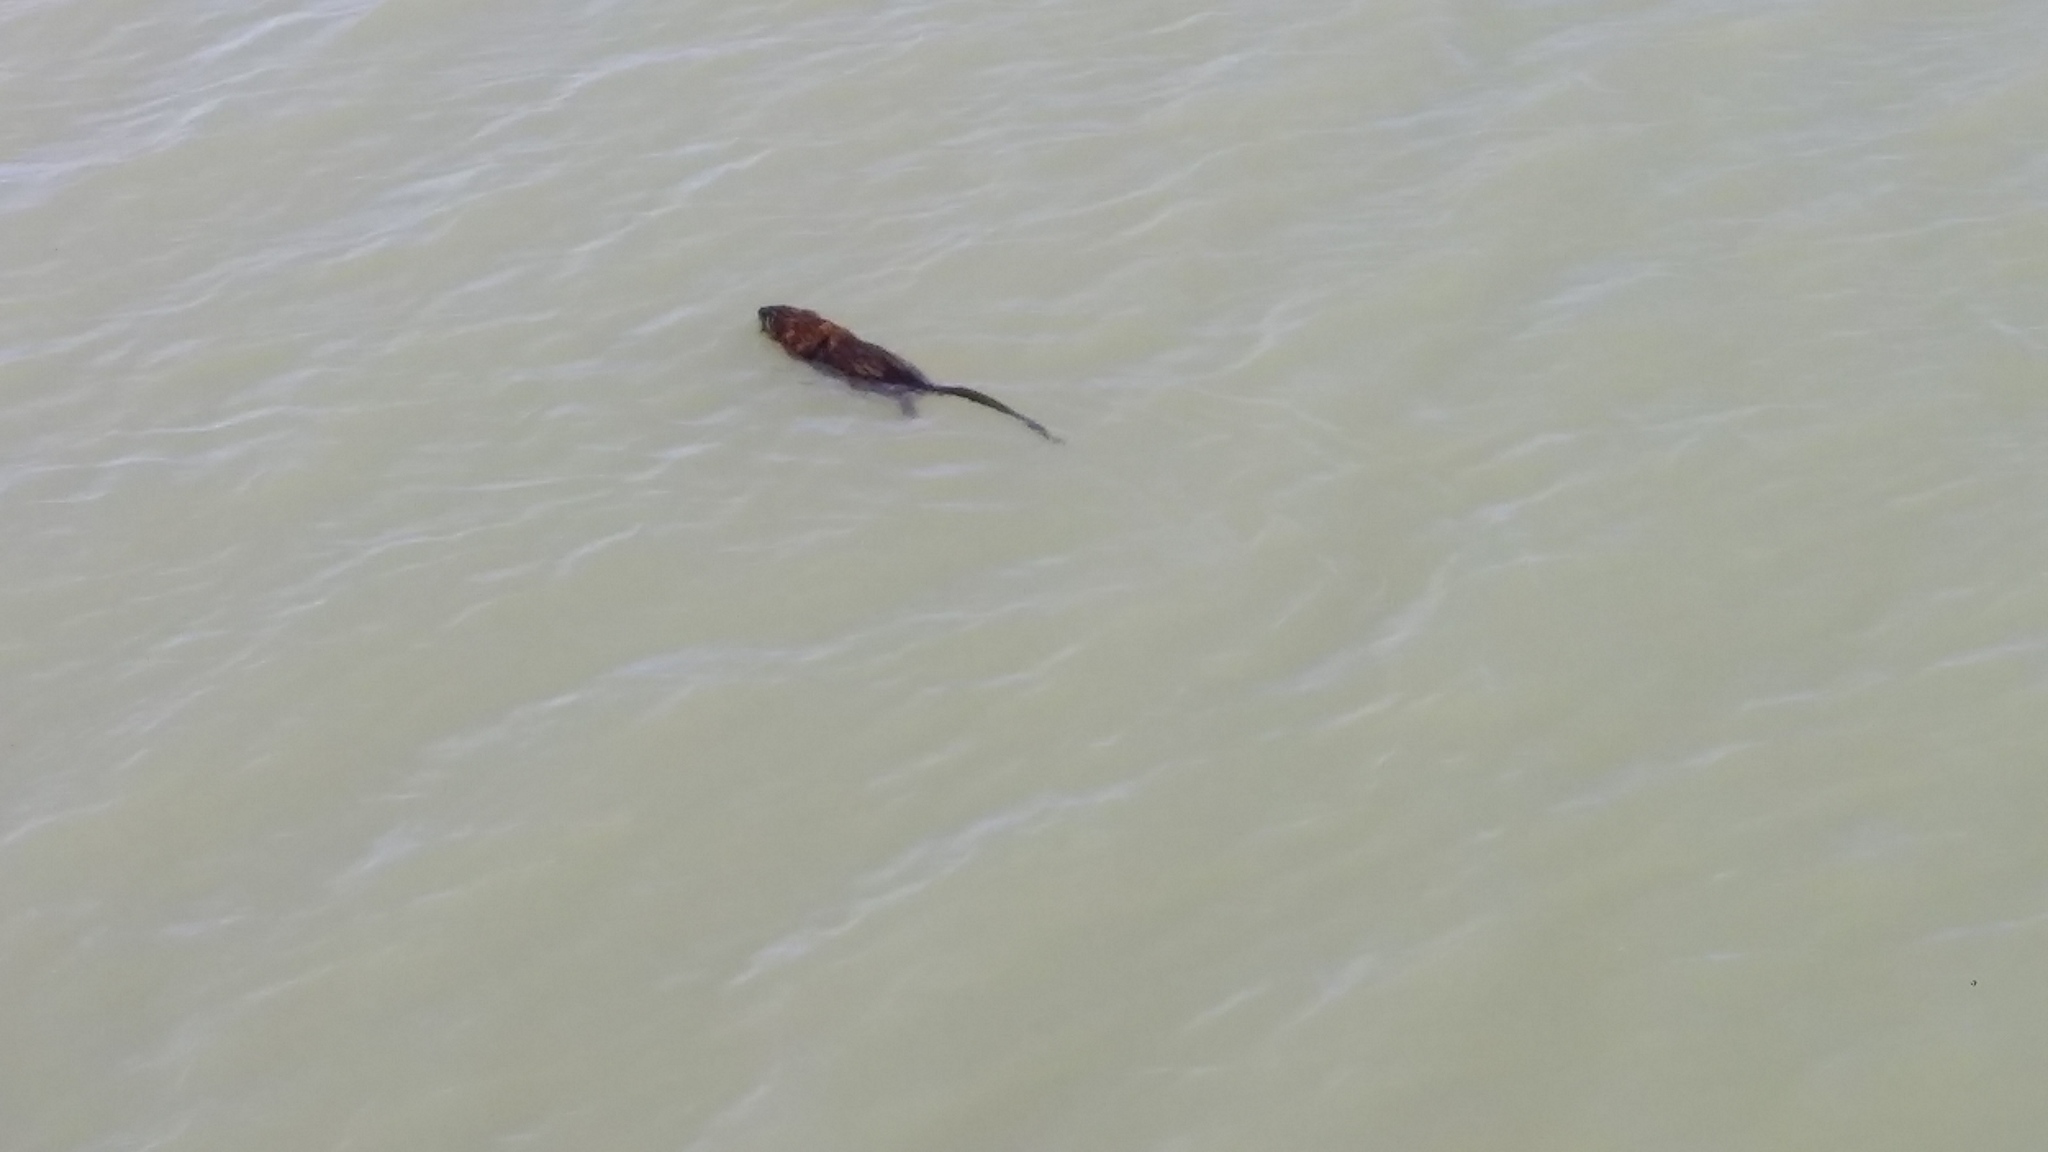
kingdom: Animalia
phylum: Chordata
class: Mammalia
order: Rodentia
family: Cricetidae
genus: Ondatra
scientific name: Ondatra zibethicus
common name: Muskrat
